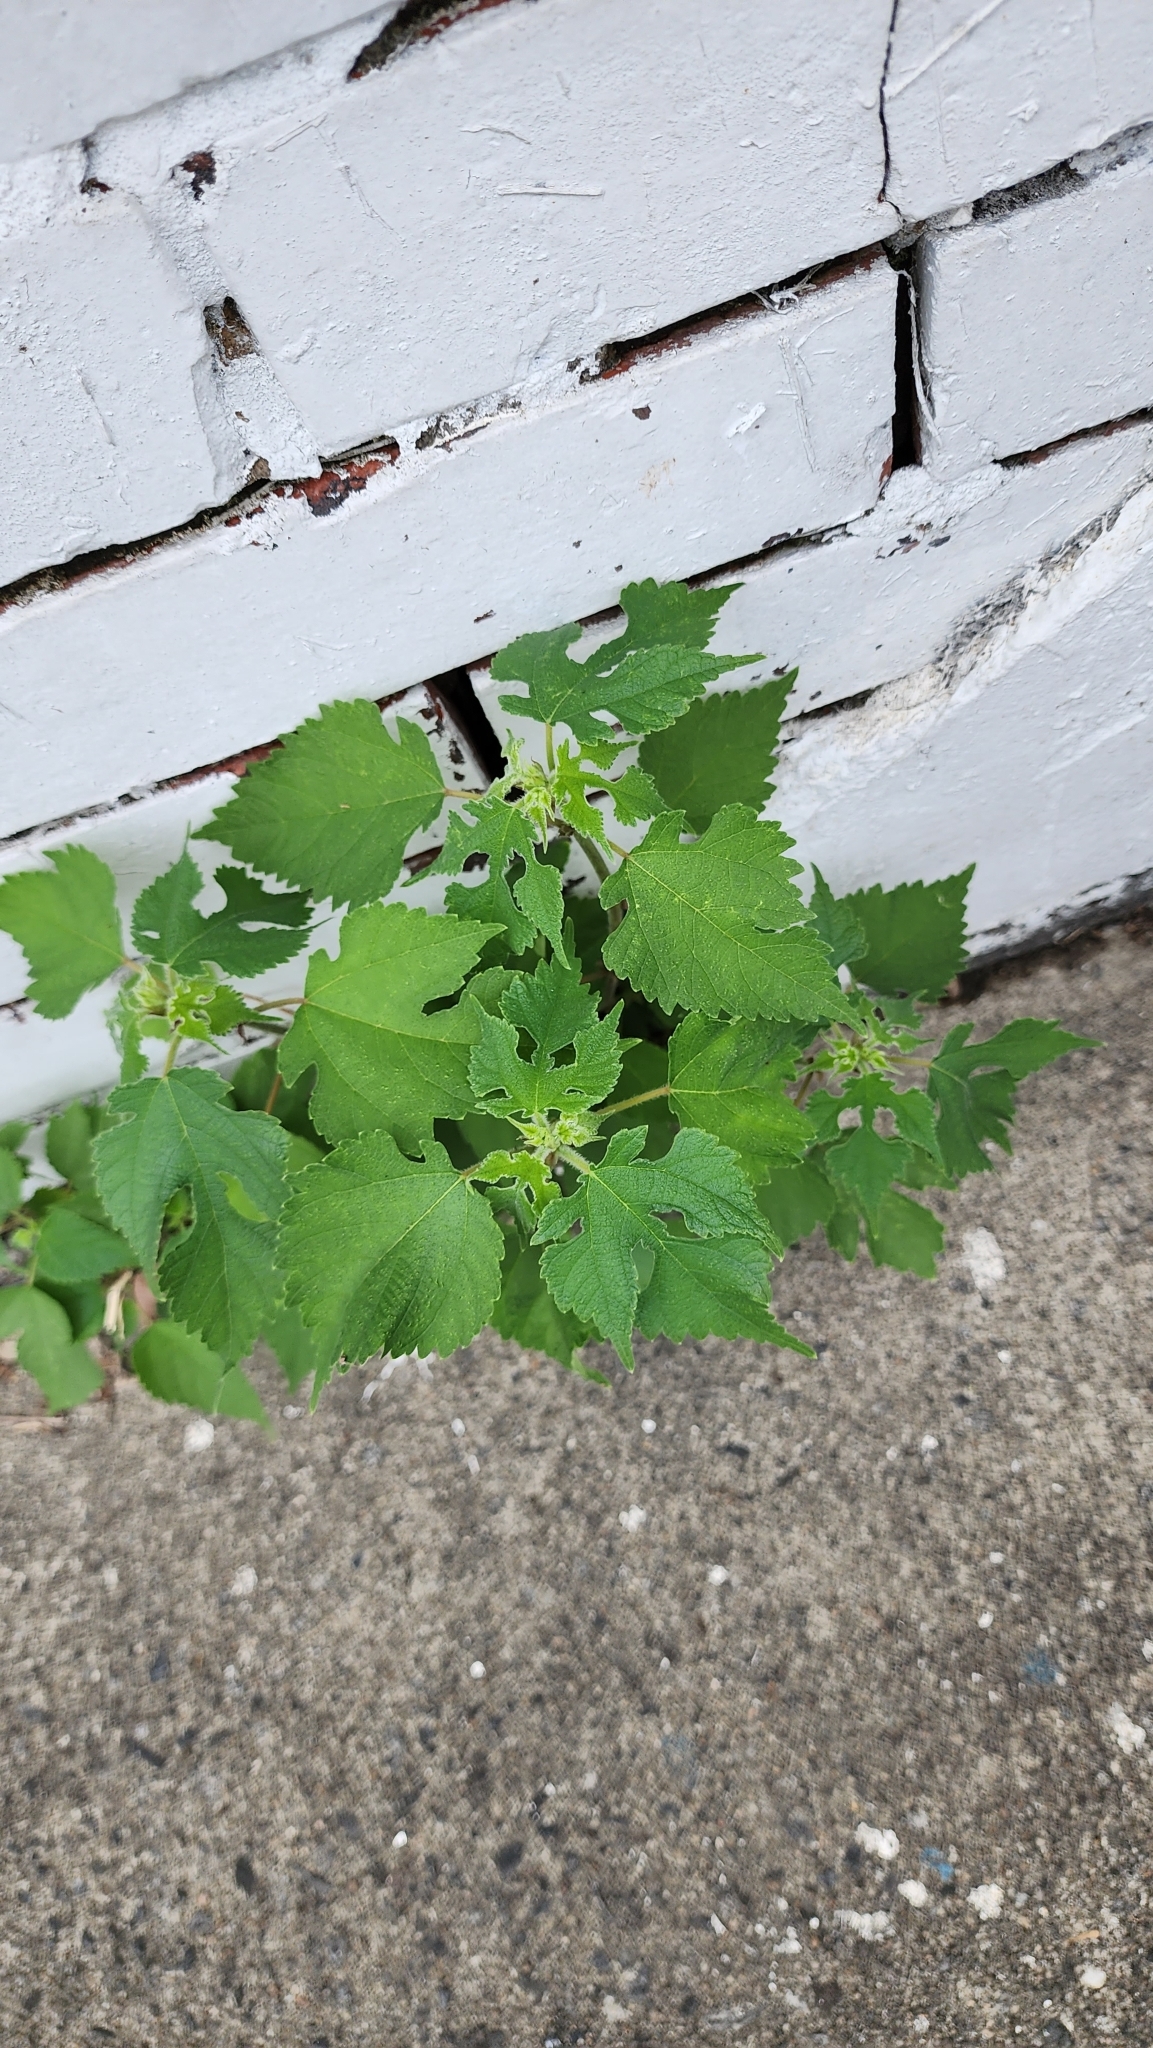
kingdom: Plantae
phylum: Tracheophyta
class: Magnoliopsida
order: Rosales
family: Moraceae
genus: Broussonetia
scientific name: Broussonetia papyrifera
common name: Paper mulberry
